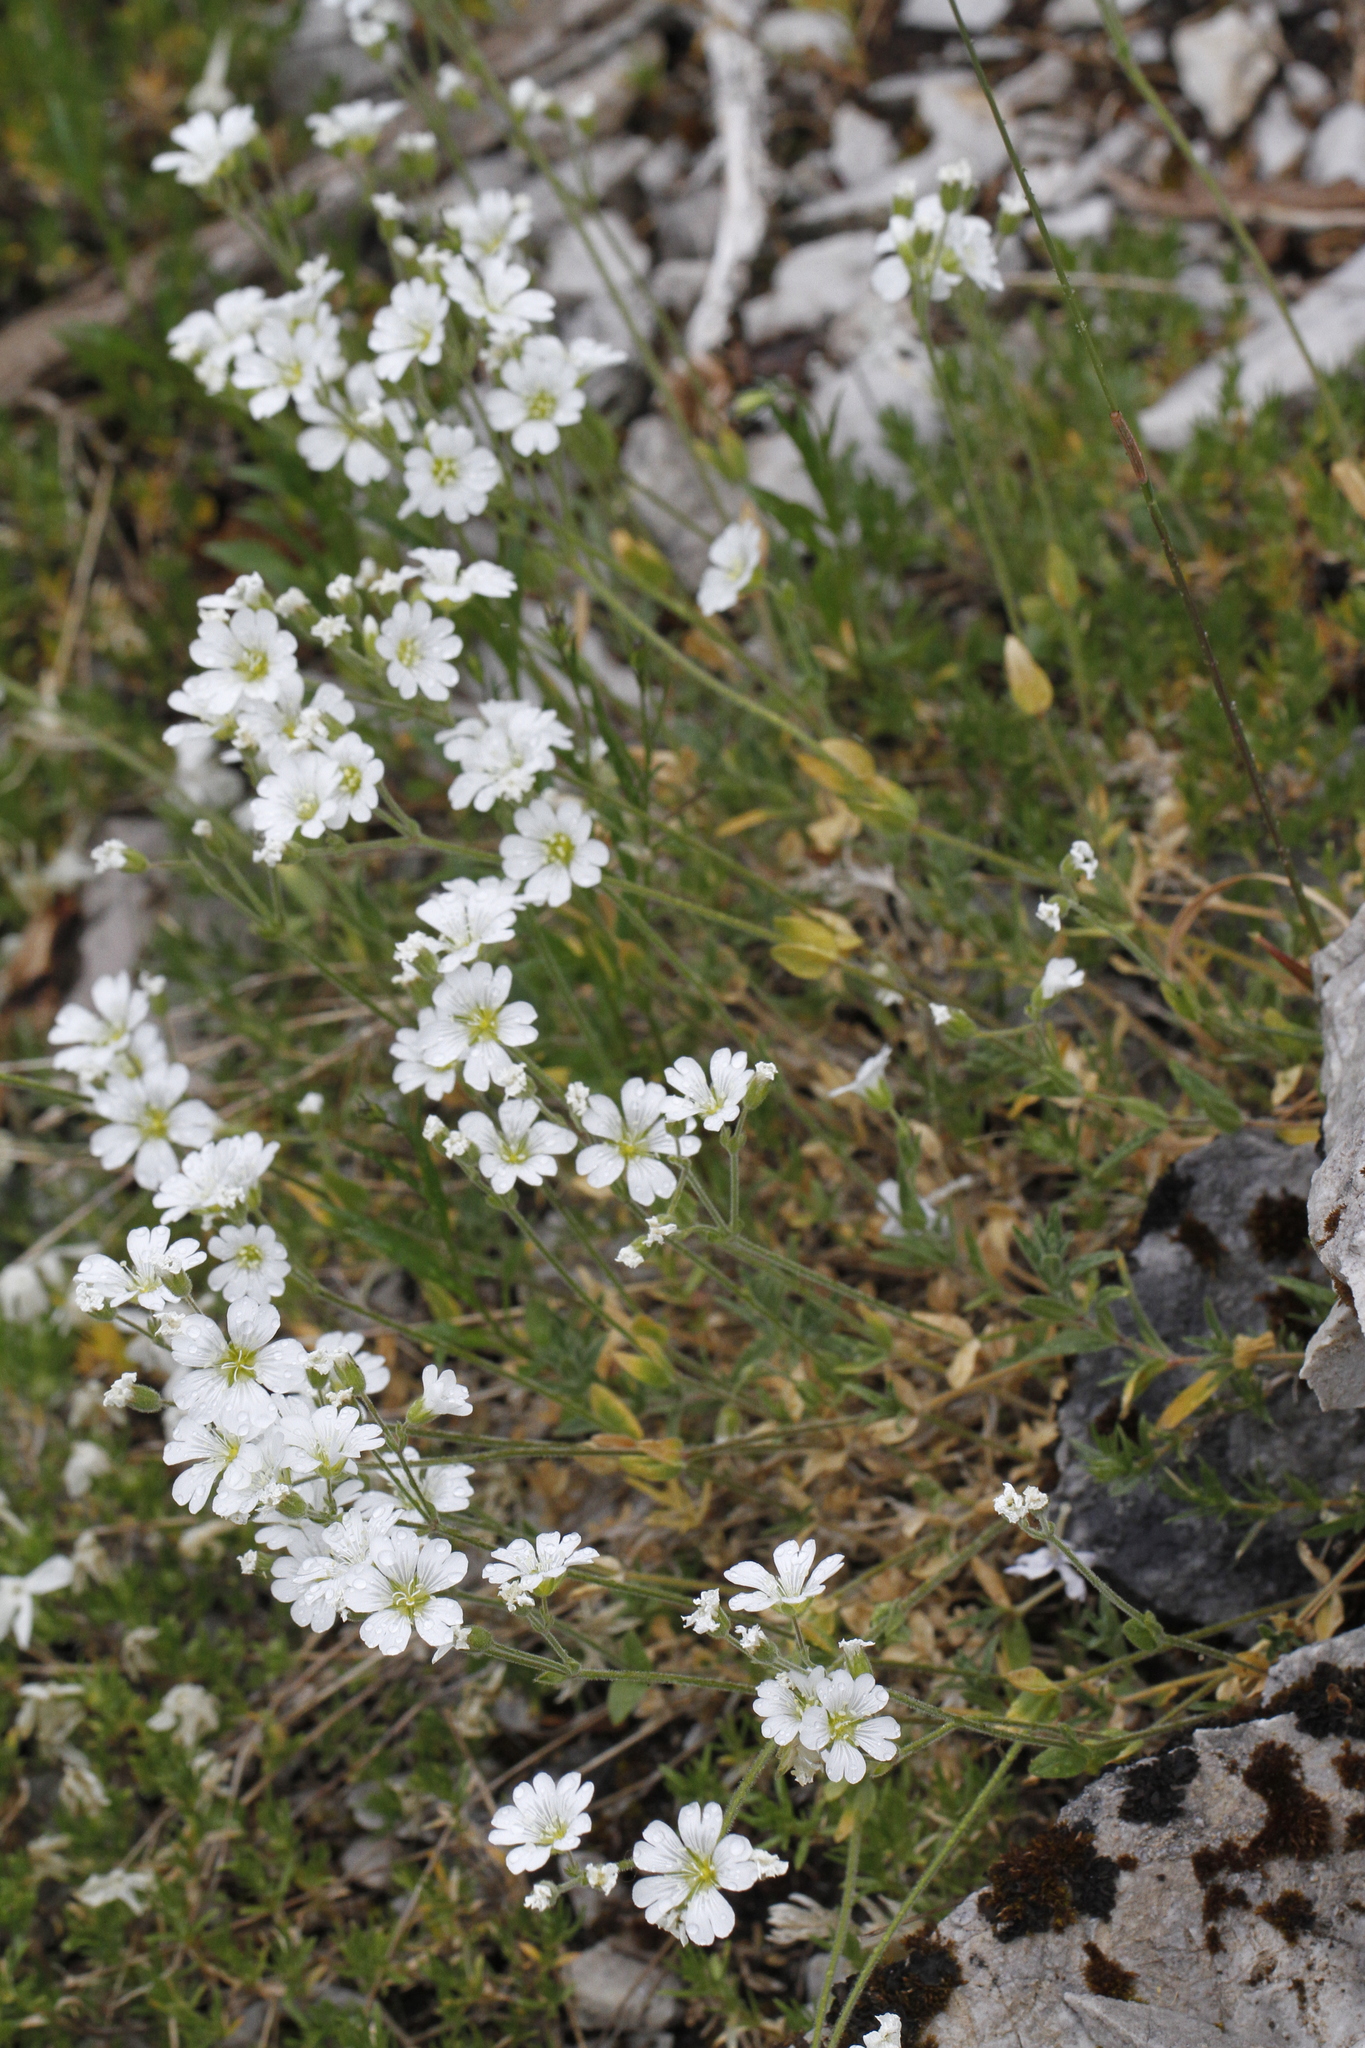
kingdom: Plantae
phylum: Tracheophyta
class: Magnoliopsida
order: Caryophyllales
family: Caryophyllaceae
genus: Cerastium
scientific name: Cerastium arvense
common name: Field mouse-ear
